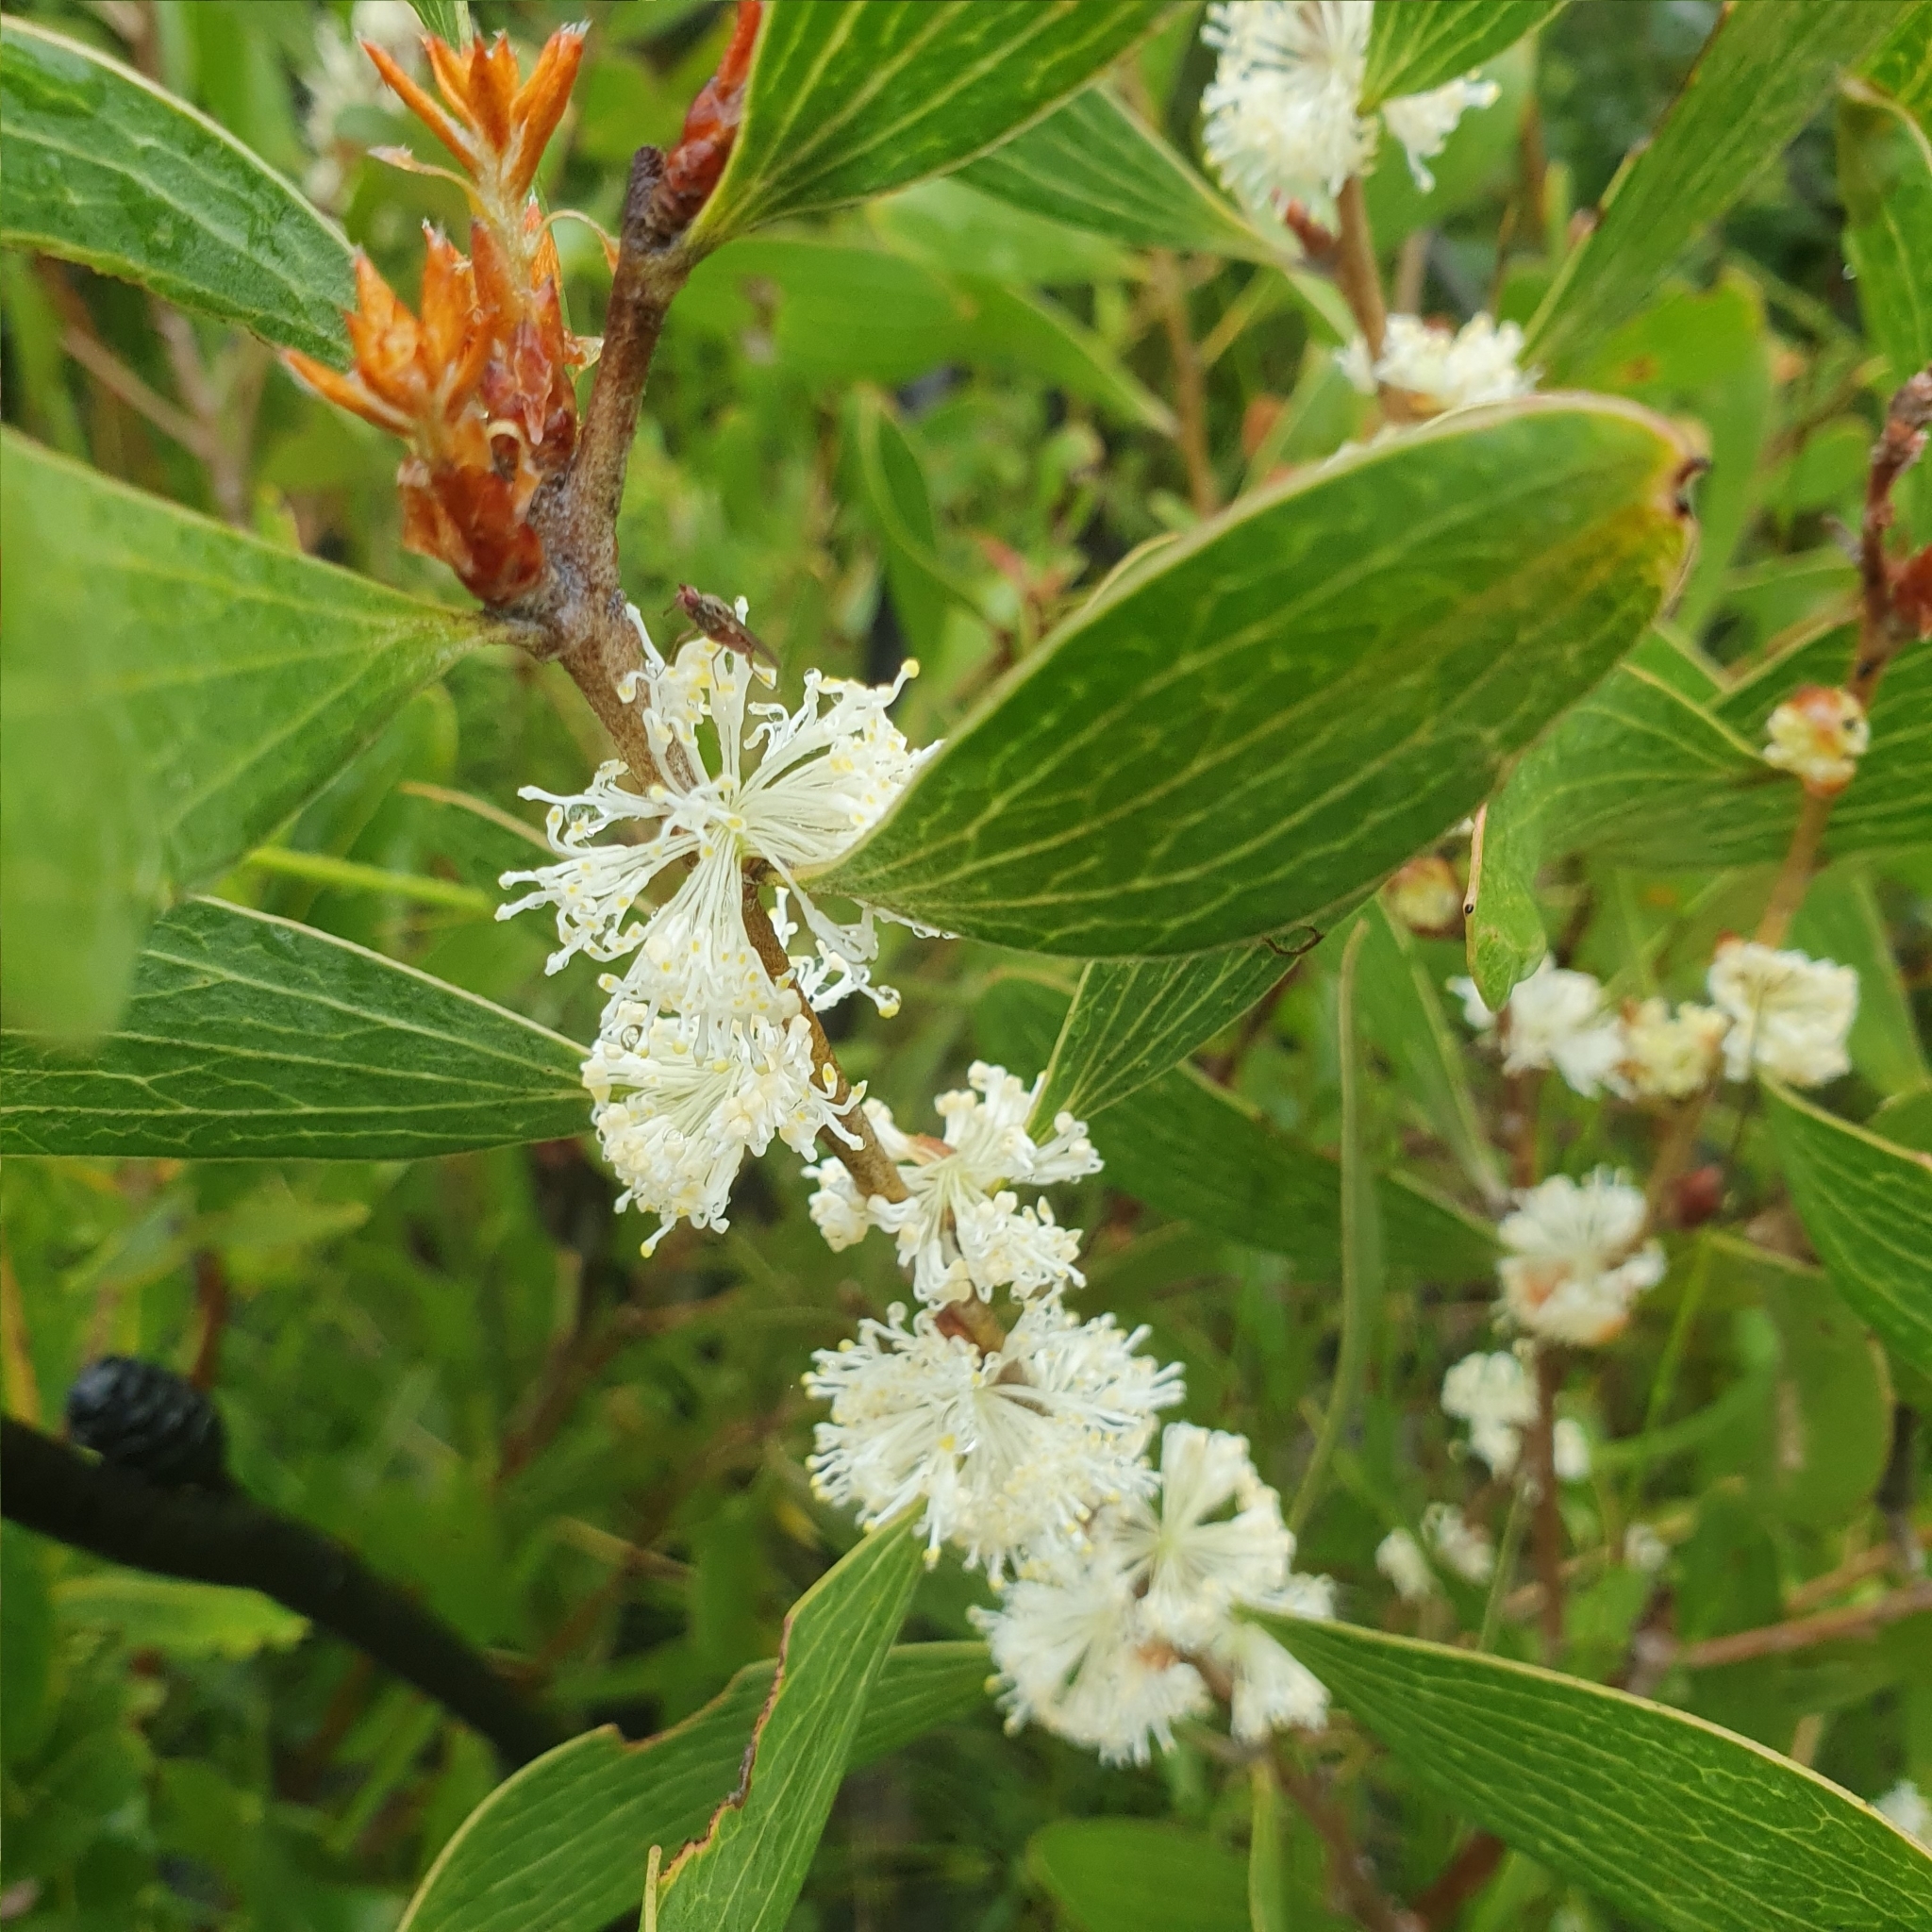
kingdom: Plantae
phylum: Tracheophyta
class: Magnoliopsida
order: Proteales
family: Proteaceae
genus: Hakea
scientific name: Hakea dactyloides
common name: Finger hakea
